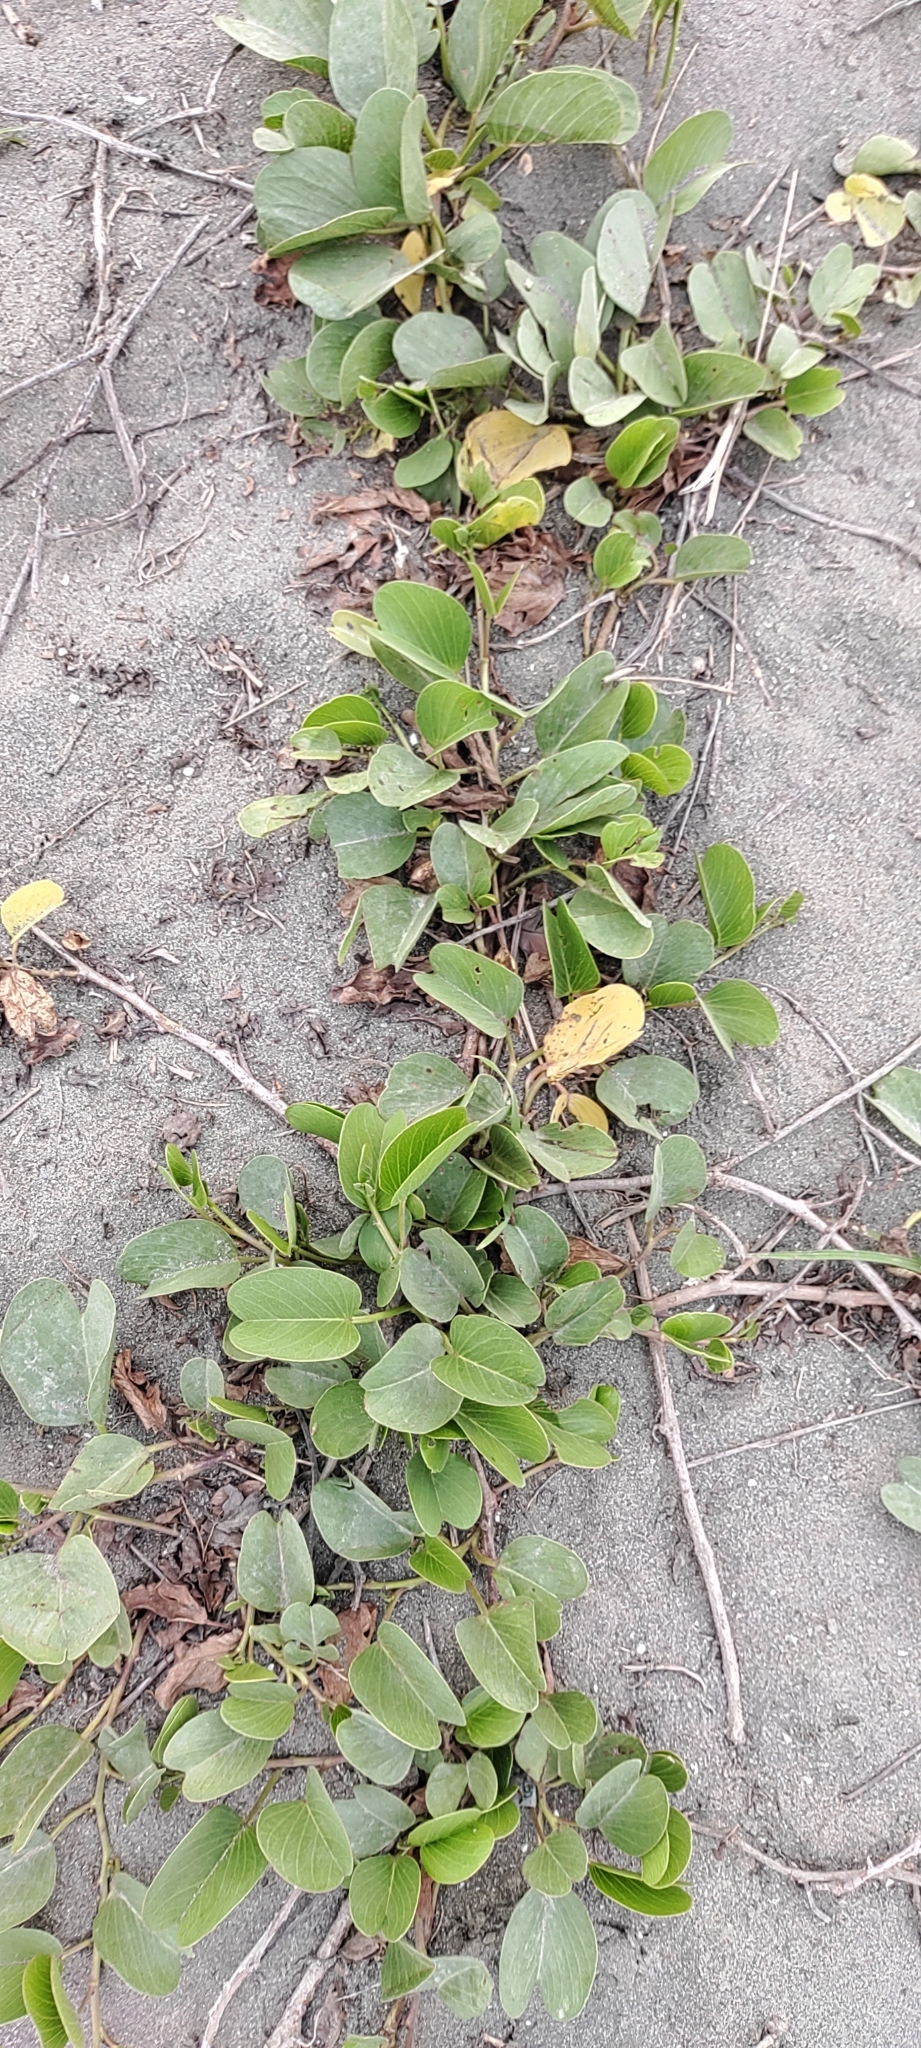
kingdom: Plantae
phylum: Tracheophyta
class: Magnoliopsida
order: Solanales
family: Convolvulaceae
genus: Ipomoea
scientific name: Ipomoea pes-caprae
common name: Beach morning glory
